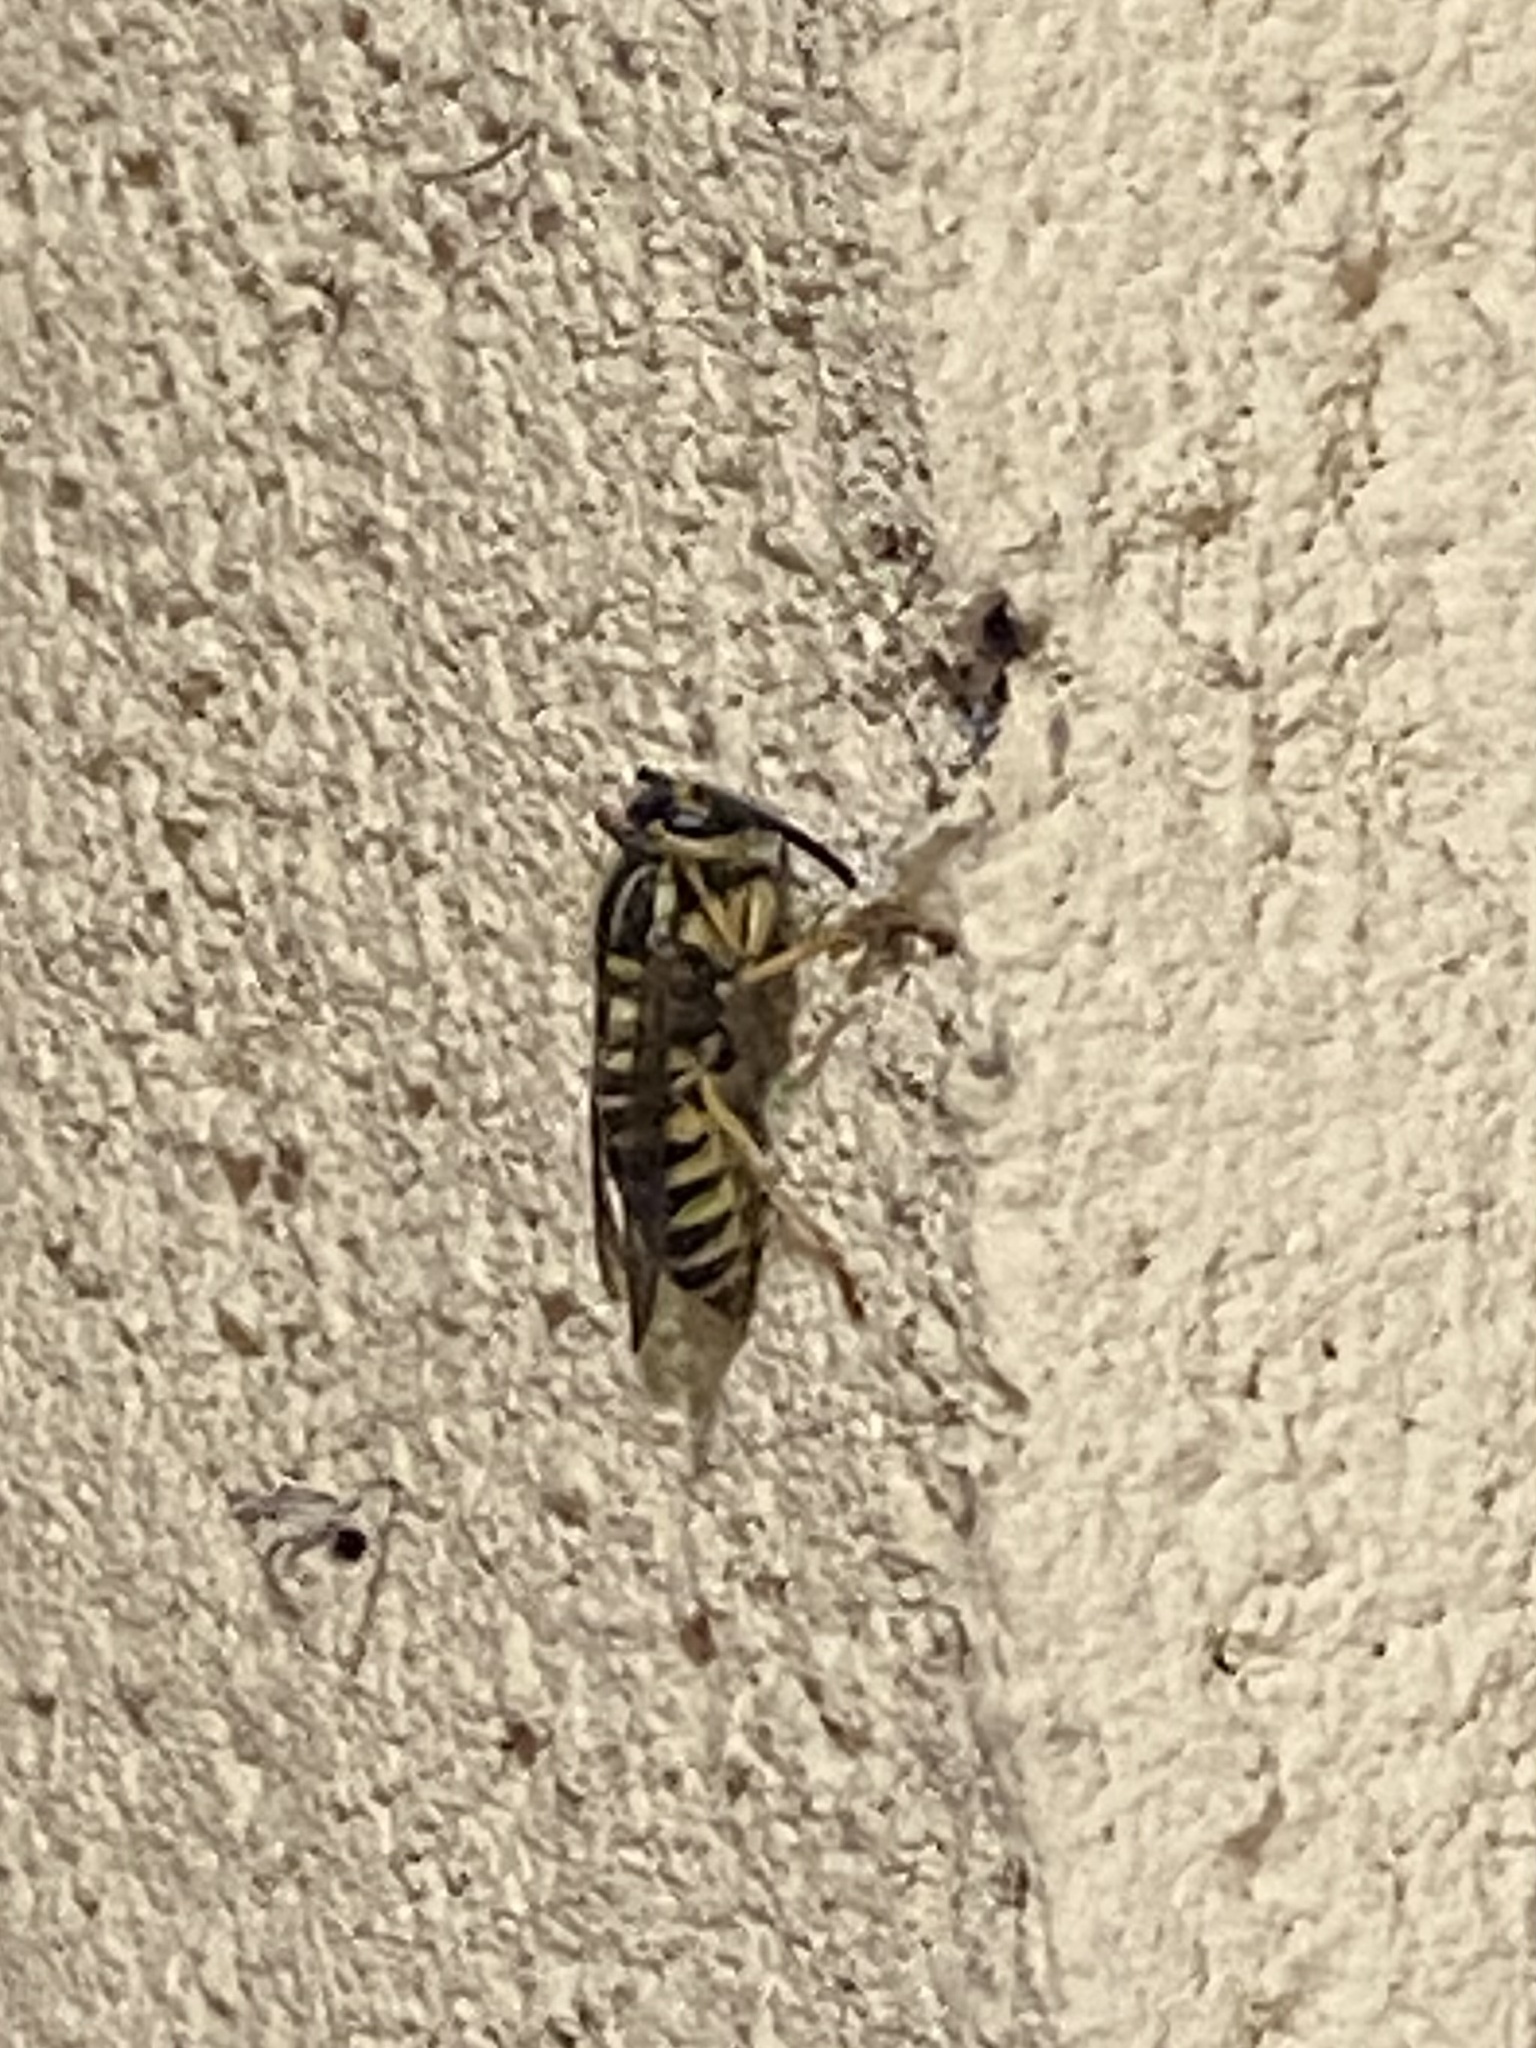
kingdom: Animalia
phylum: Arthropoda
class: Insecta
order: Hymenoptera
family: Vespidae
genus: Vespula
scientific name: Vespula squamosa
